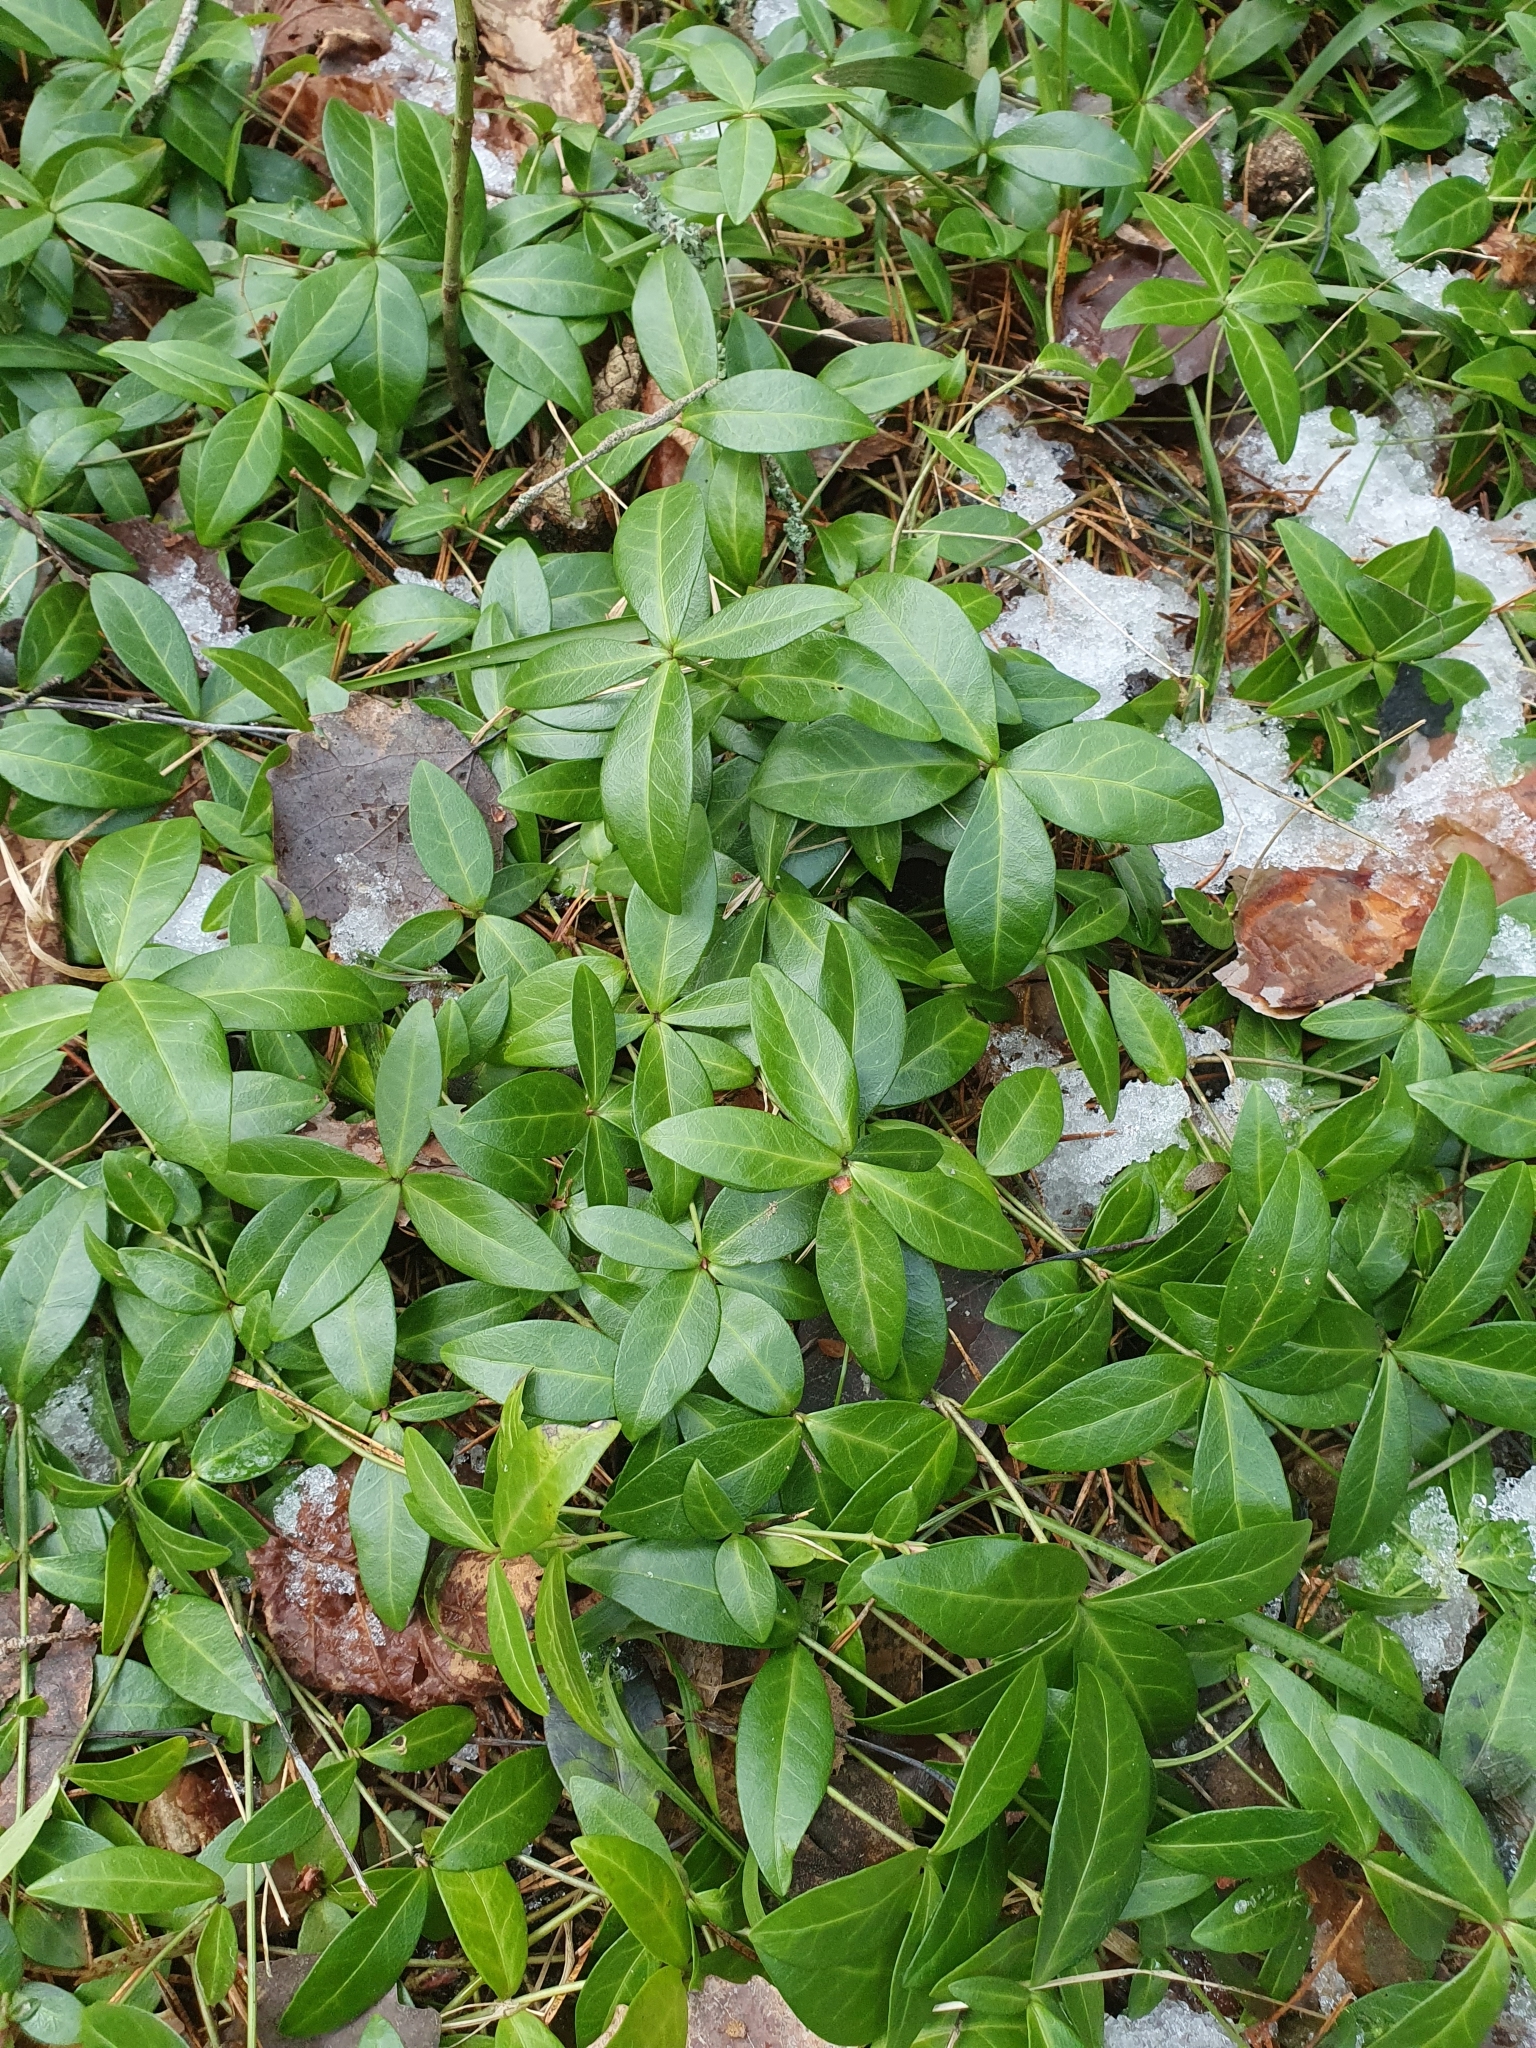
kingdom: Plantae
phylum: Tracheophyta
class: Magnoliopsida
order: Gentianales
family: Apocynaceae
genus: Vinca
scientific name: Vinca minor
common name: Lesser periwinkle
